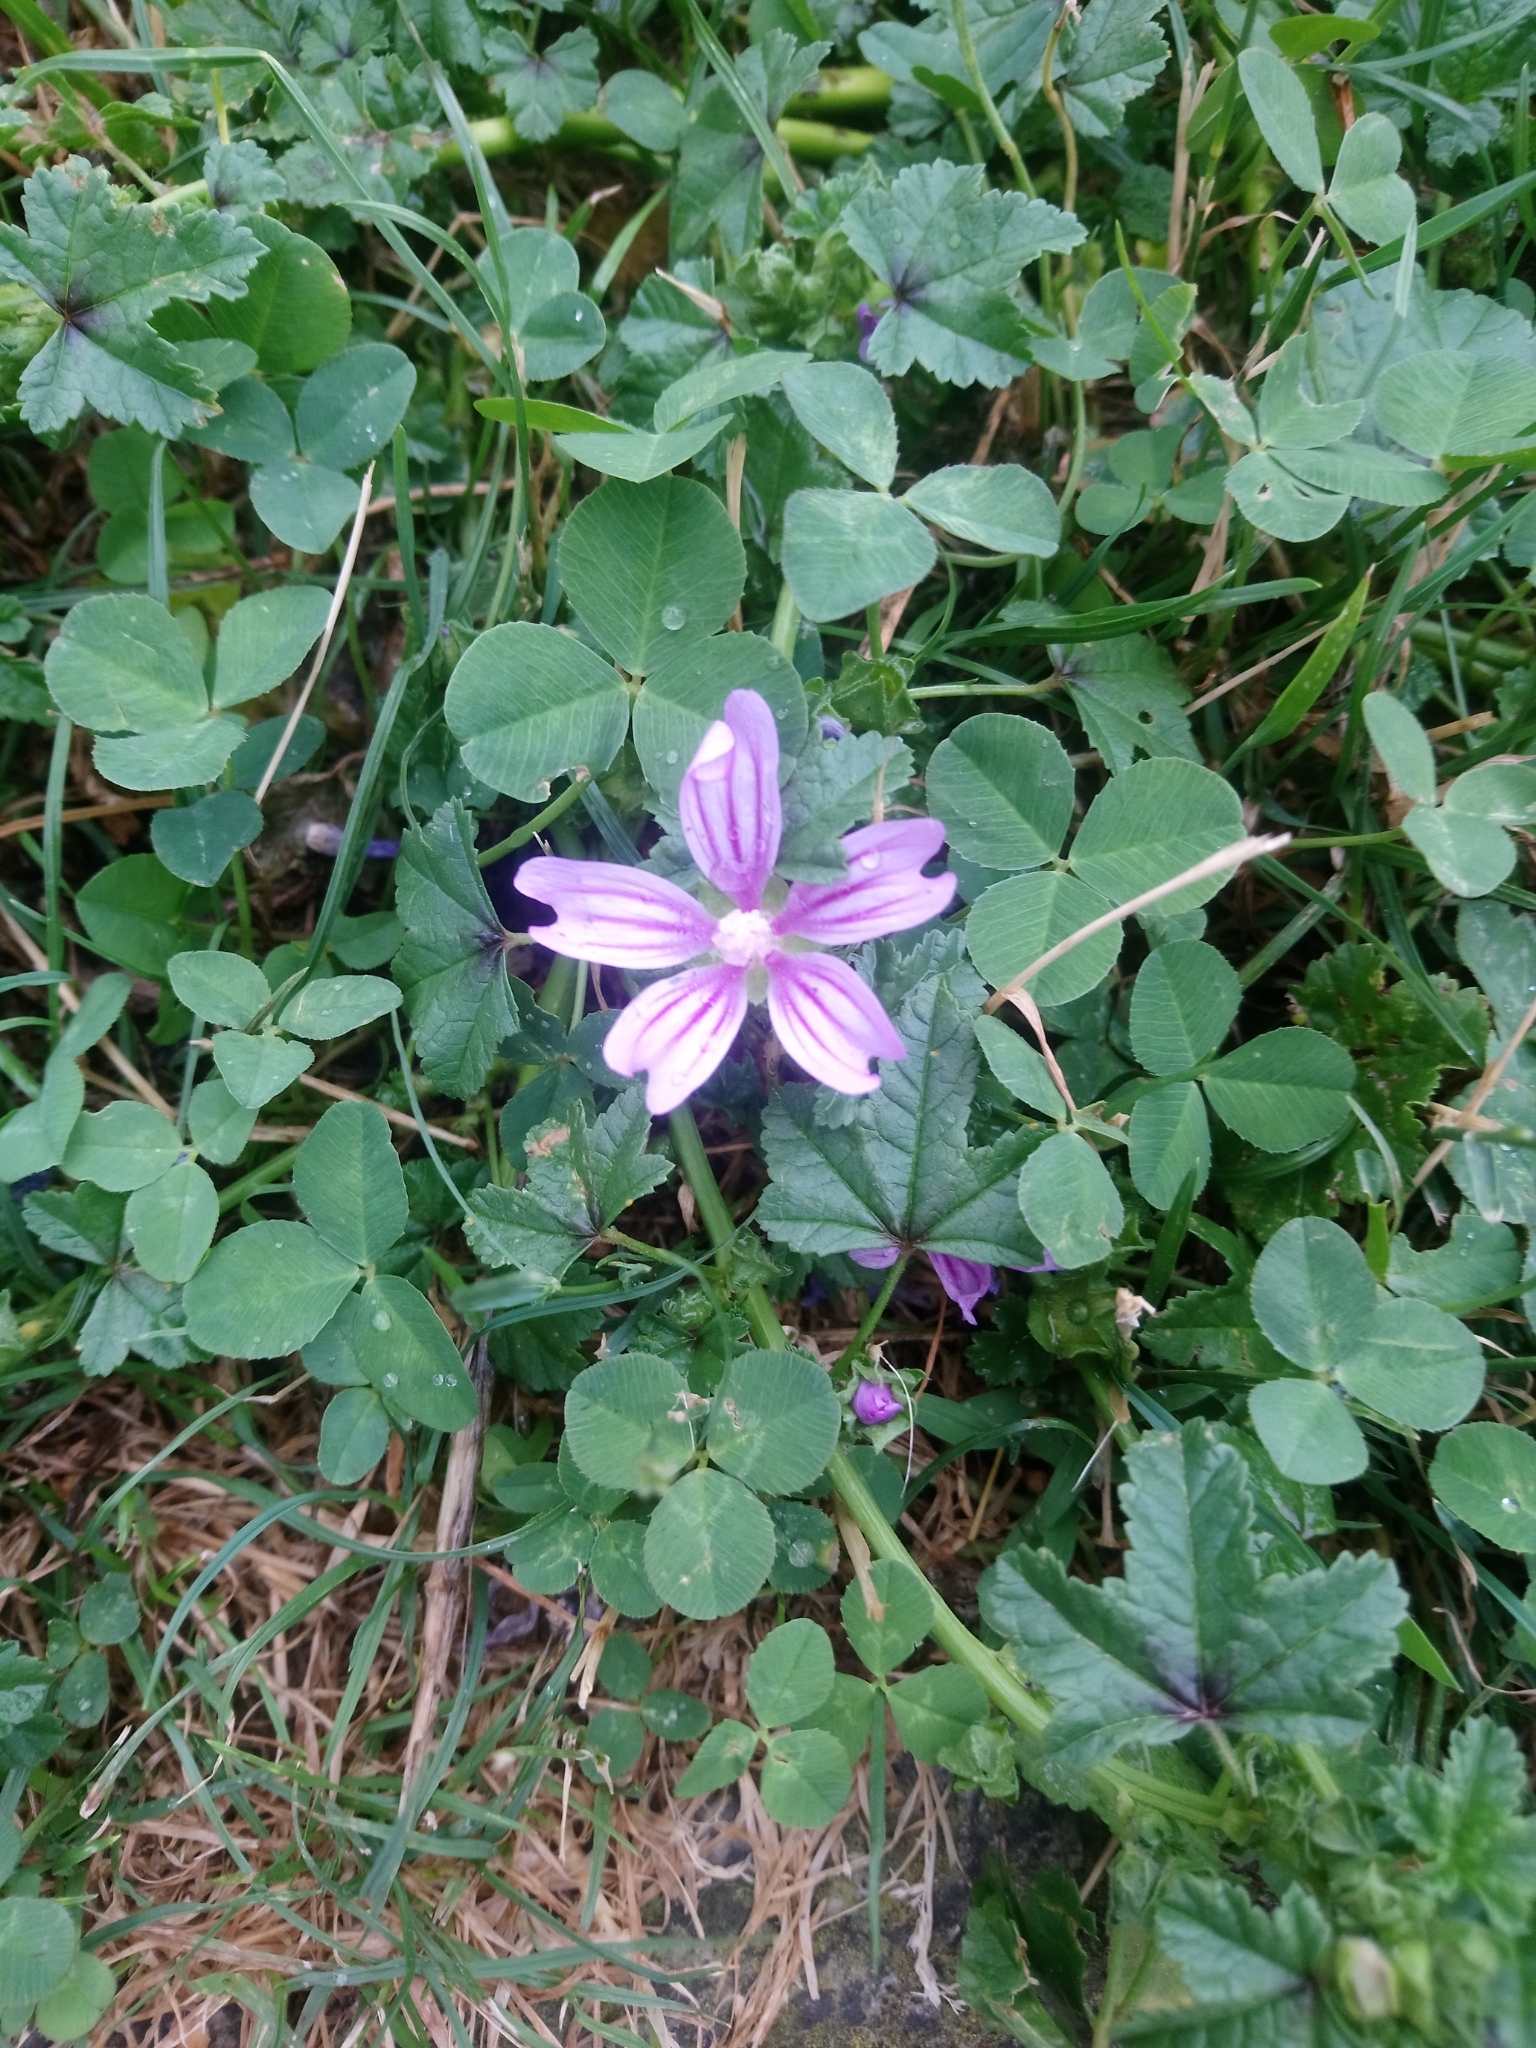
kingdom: Plantae
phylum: Tracheophyta
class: Magnoliopsida
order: Malvales
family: Malvaceae
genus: Malva
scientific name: Malva sylvestris
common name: Common mallow
